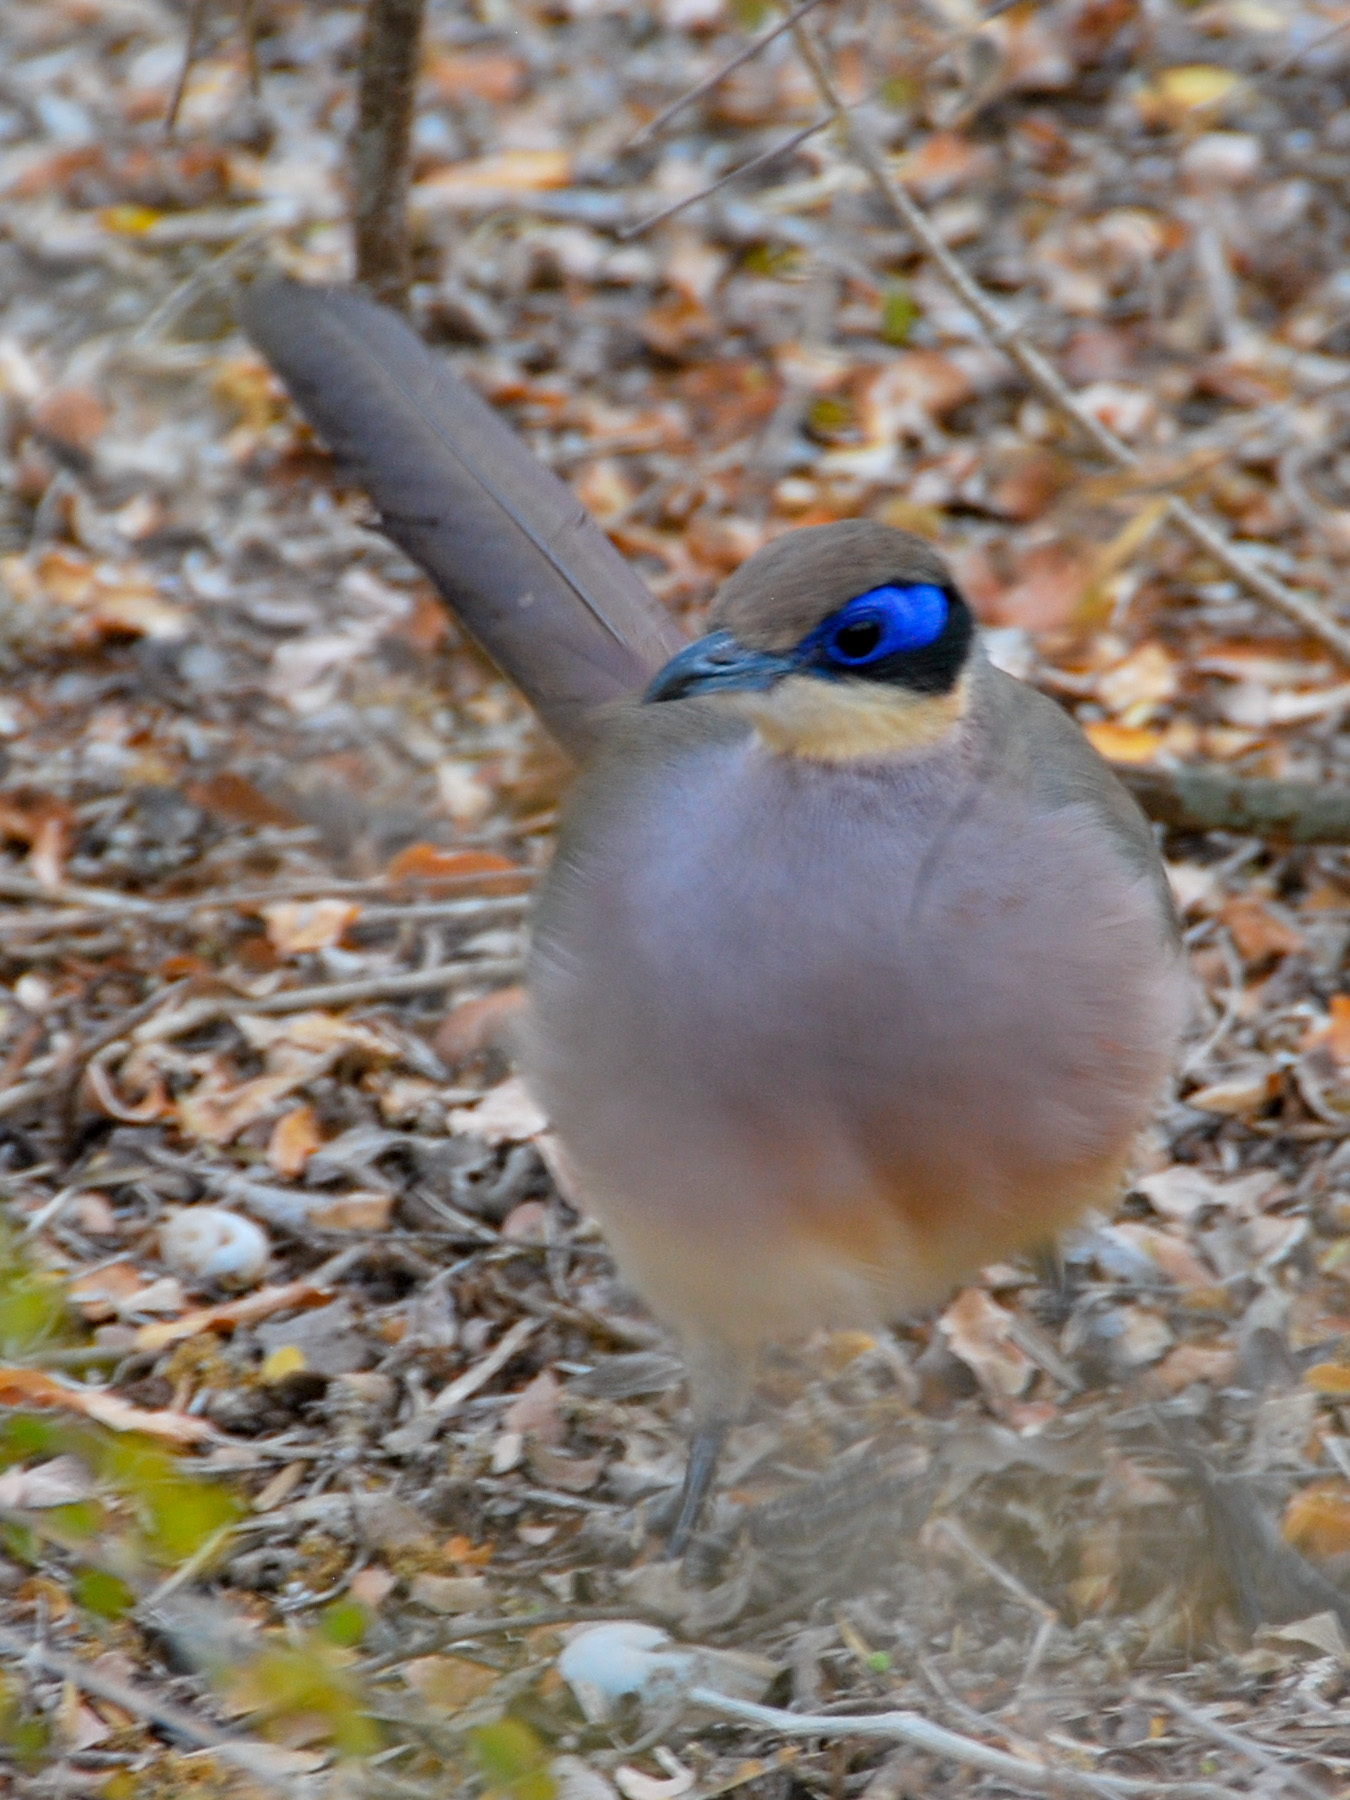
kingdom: Animalia
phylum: Chordata
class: Aves
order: Cuculiformes
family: Cuculidae
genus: Coua
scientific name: Coua ruficeps
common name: Red-capped coua
